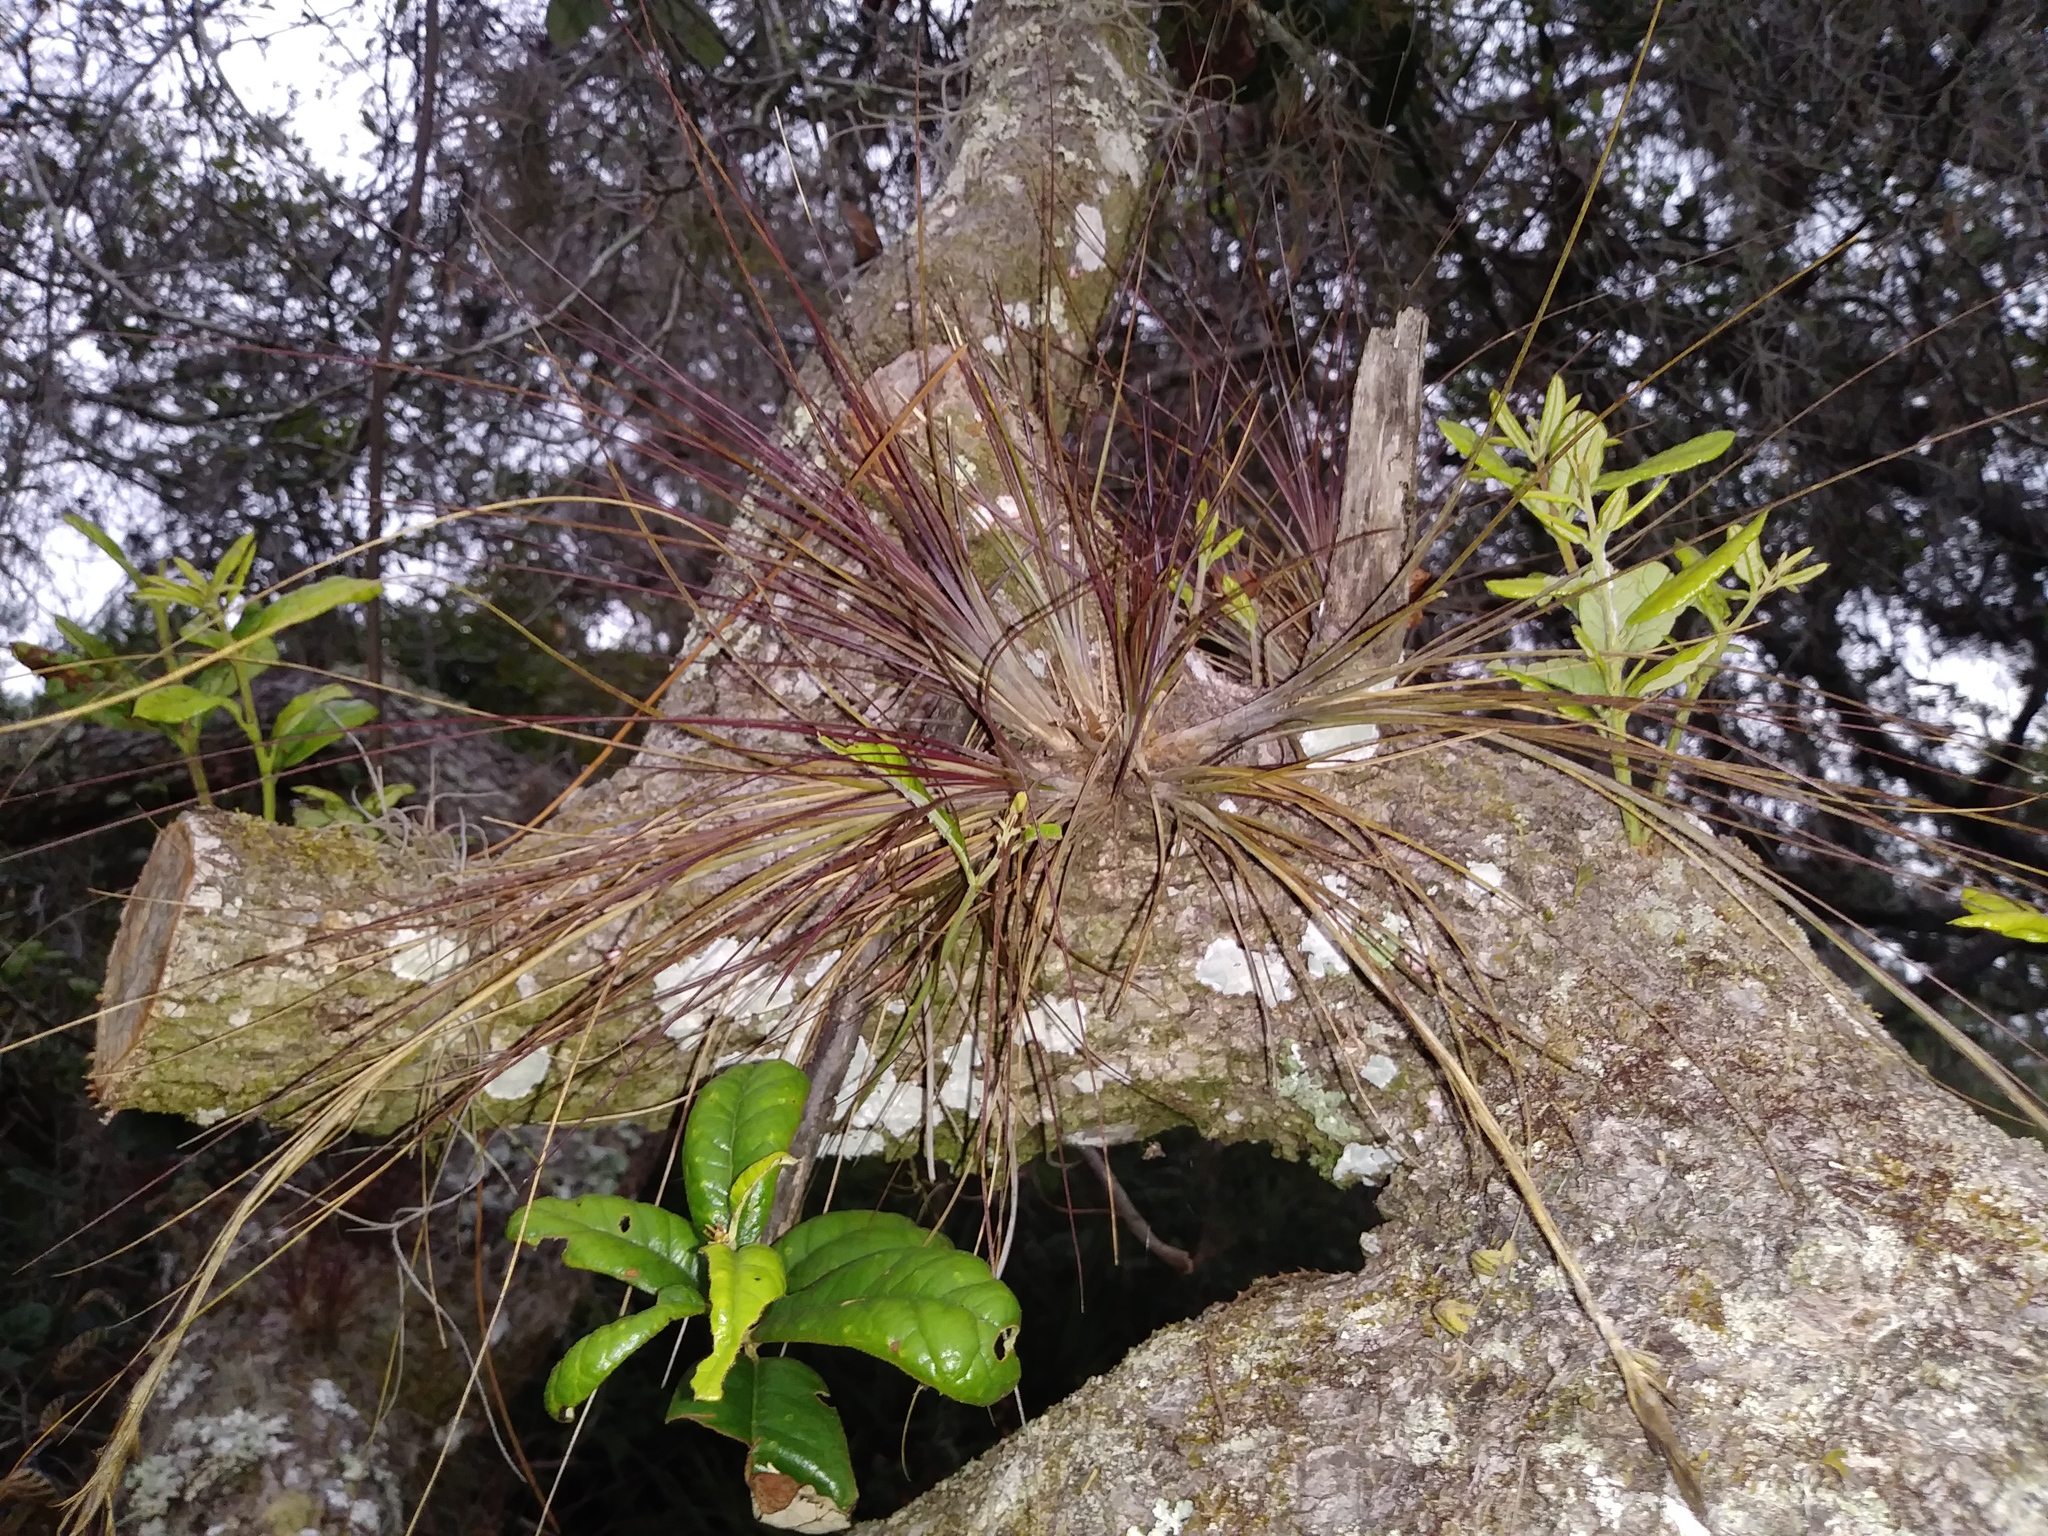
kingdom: Plantae
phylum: Tracheophyta
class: Liliopsida
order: Poales
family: Bromeliaceae
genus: Tillandsia
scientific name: Tillandsia setacea
